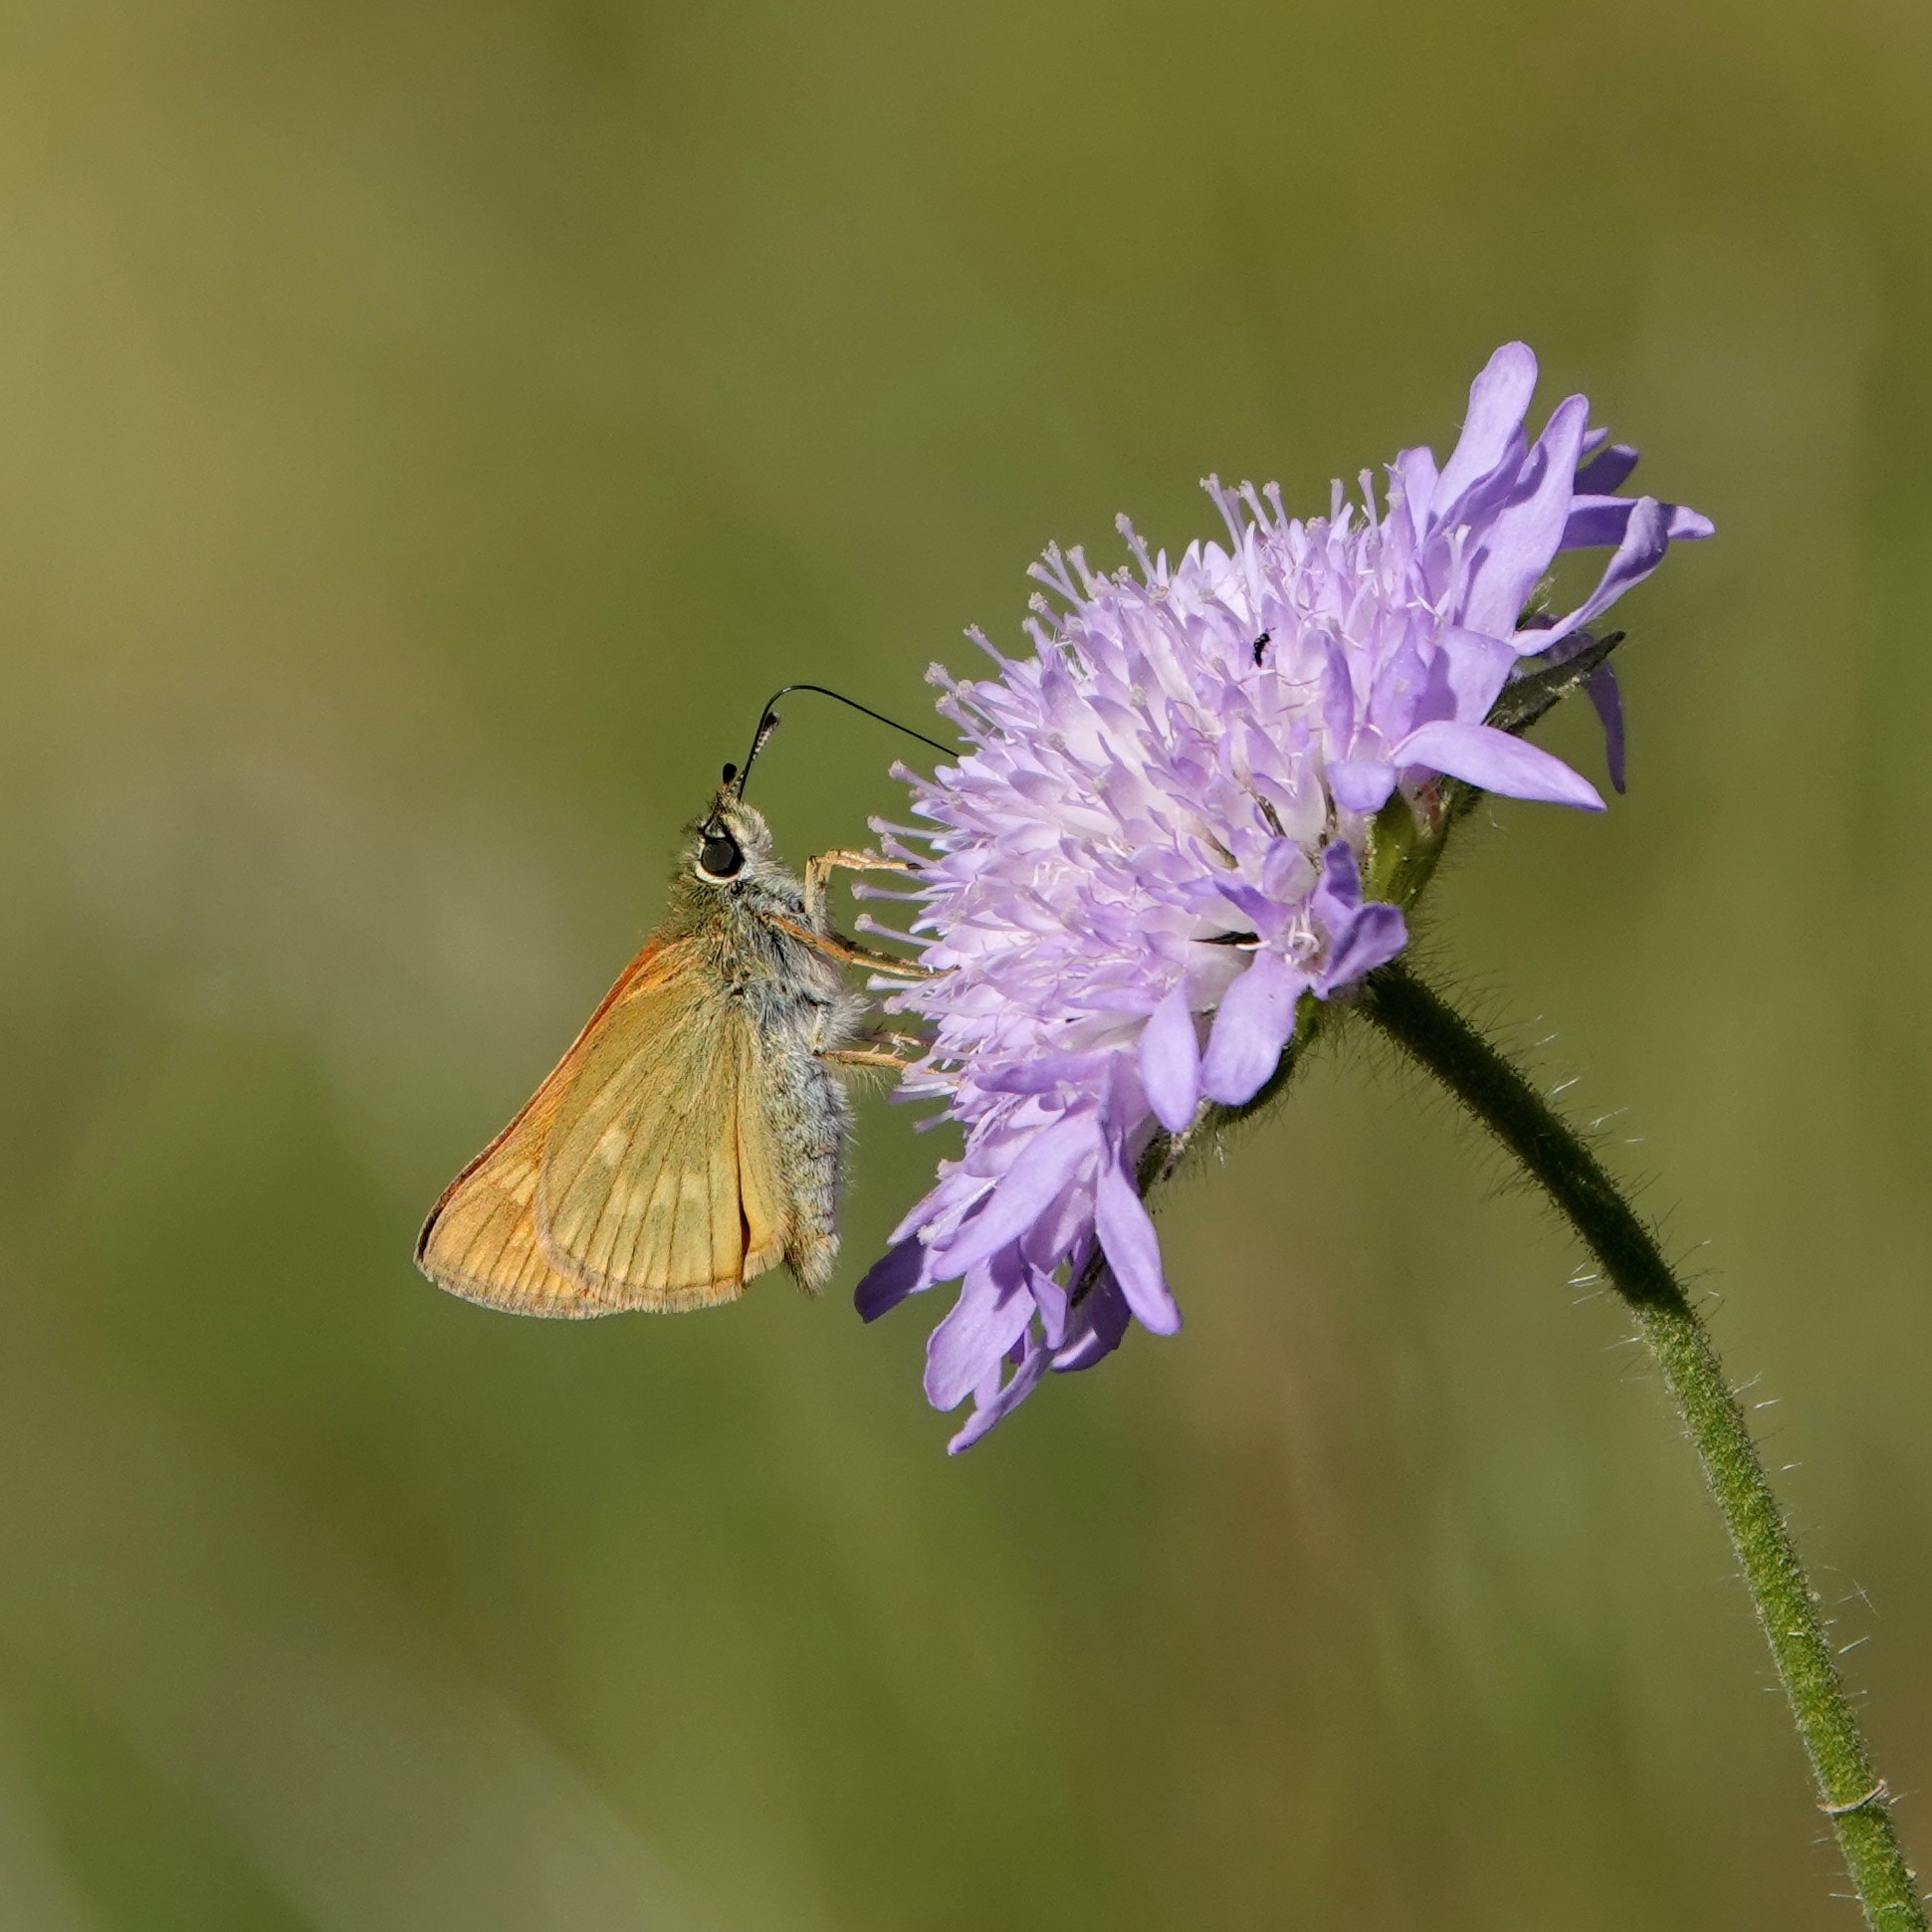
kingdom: Animalia
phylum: Arthropoda
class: Insecta
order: Lepidoptera
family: Hesperiidae
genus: Ochlodes
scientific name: Ochlodes venata
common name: Large skipper
